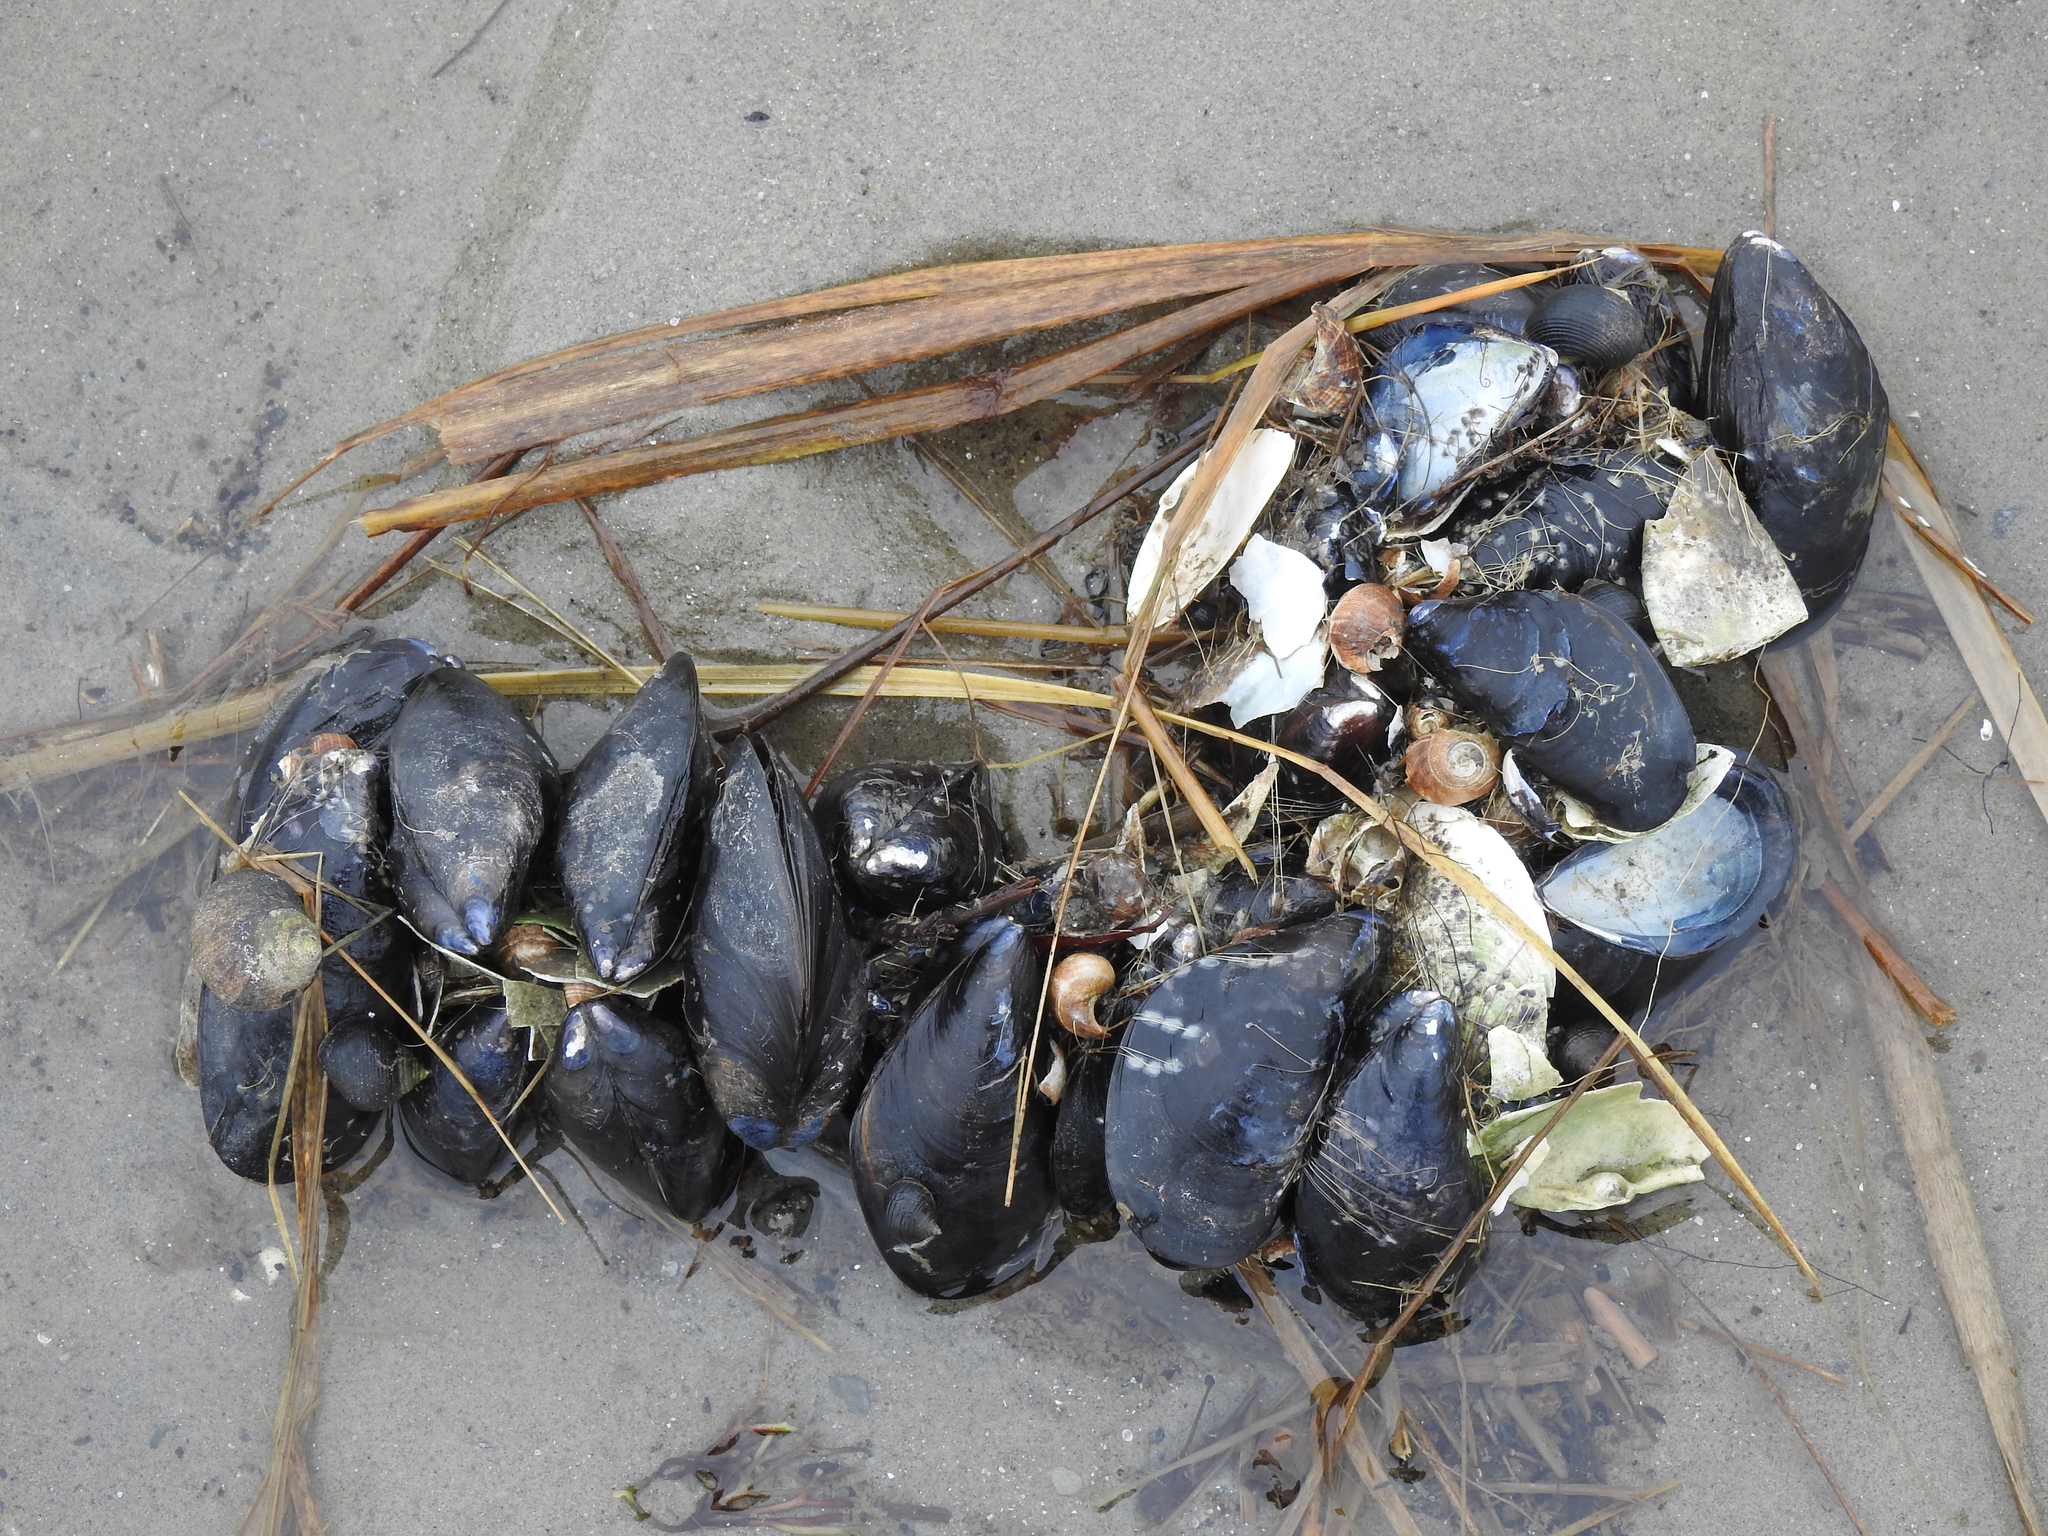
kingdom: Animalia
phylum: Mollusca
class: Bivalvia
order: Mytilida
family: Mytilidae
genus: Mytilus
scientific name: Mytilus edulis
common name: Blue mussel
